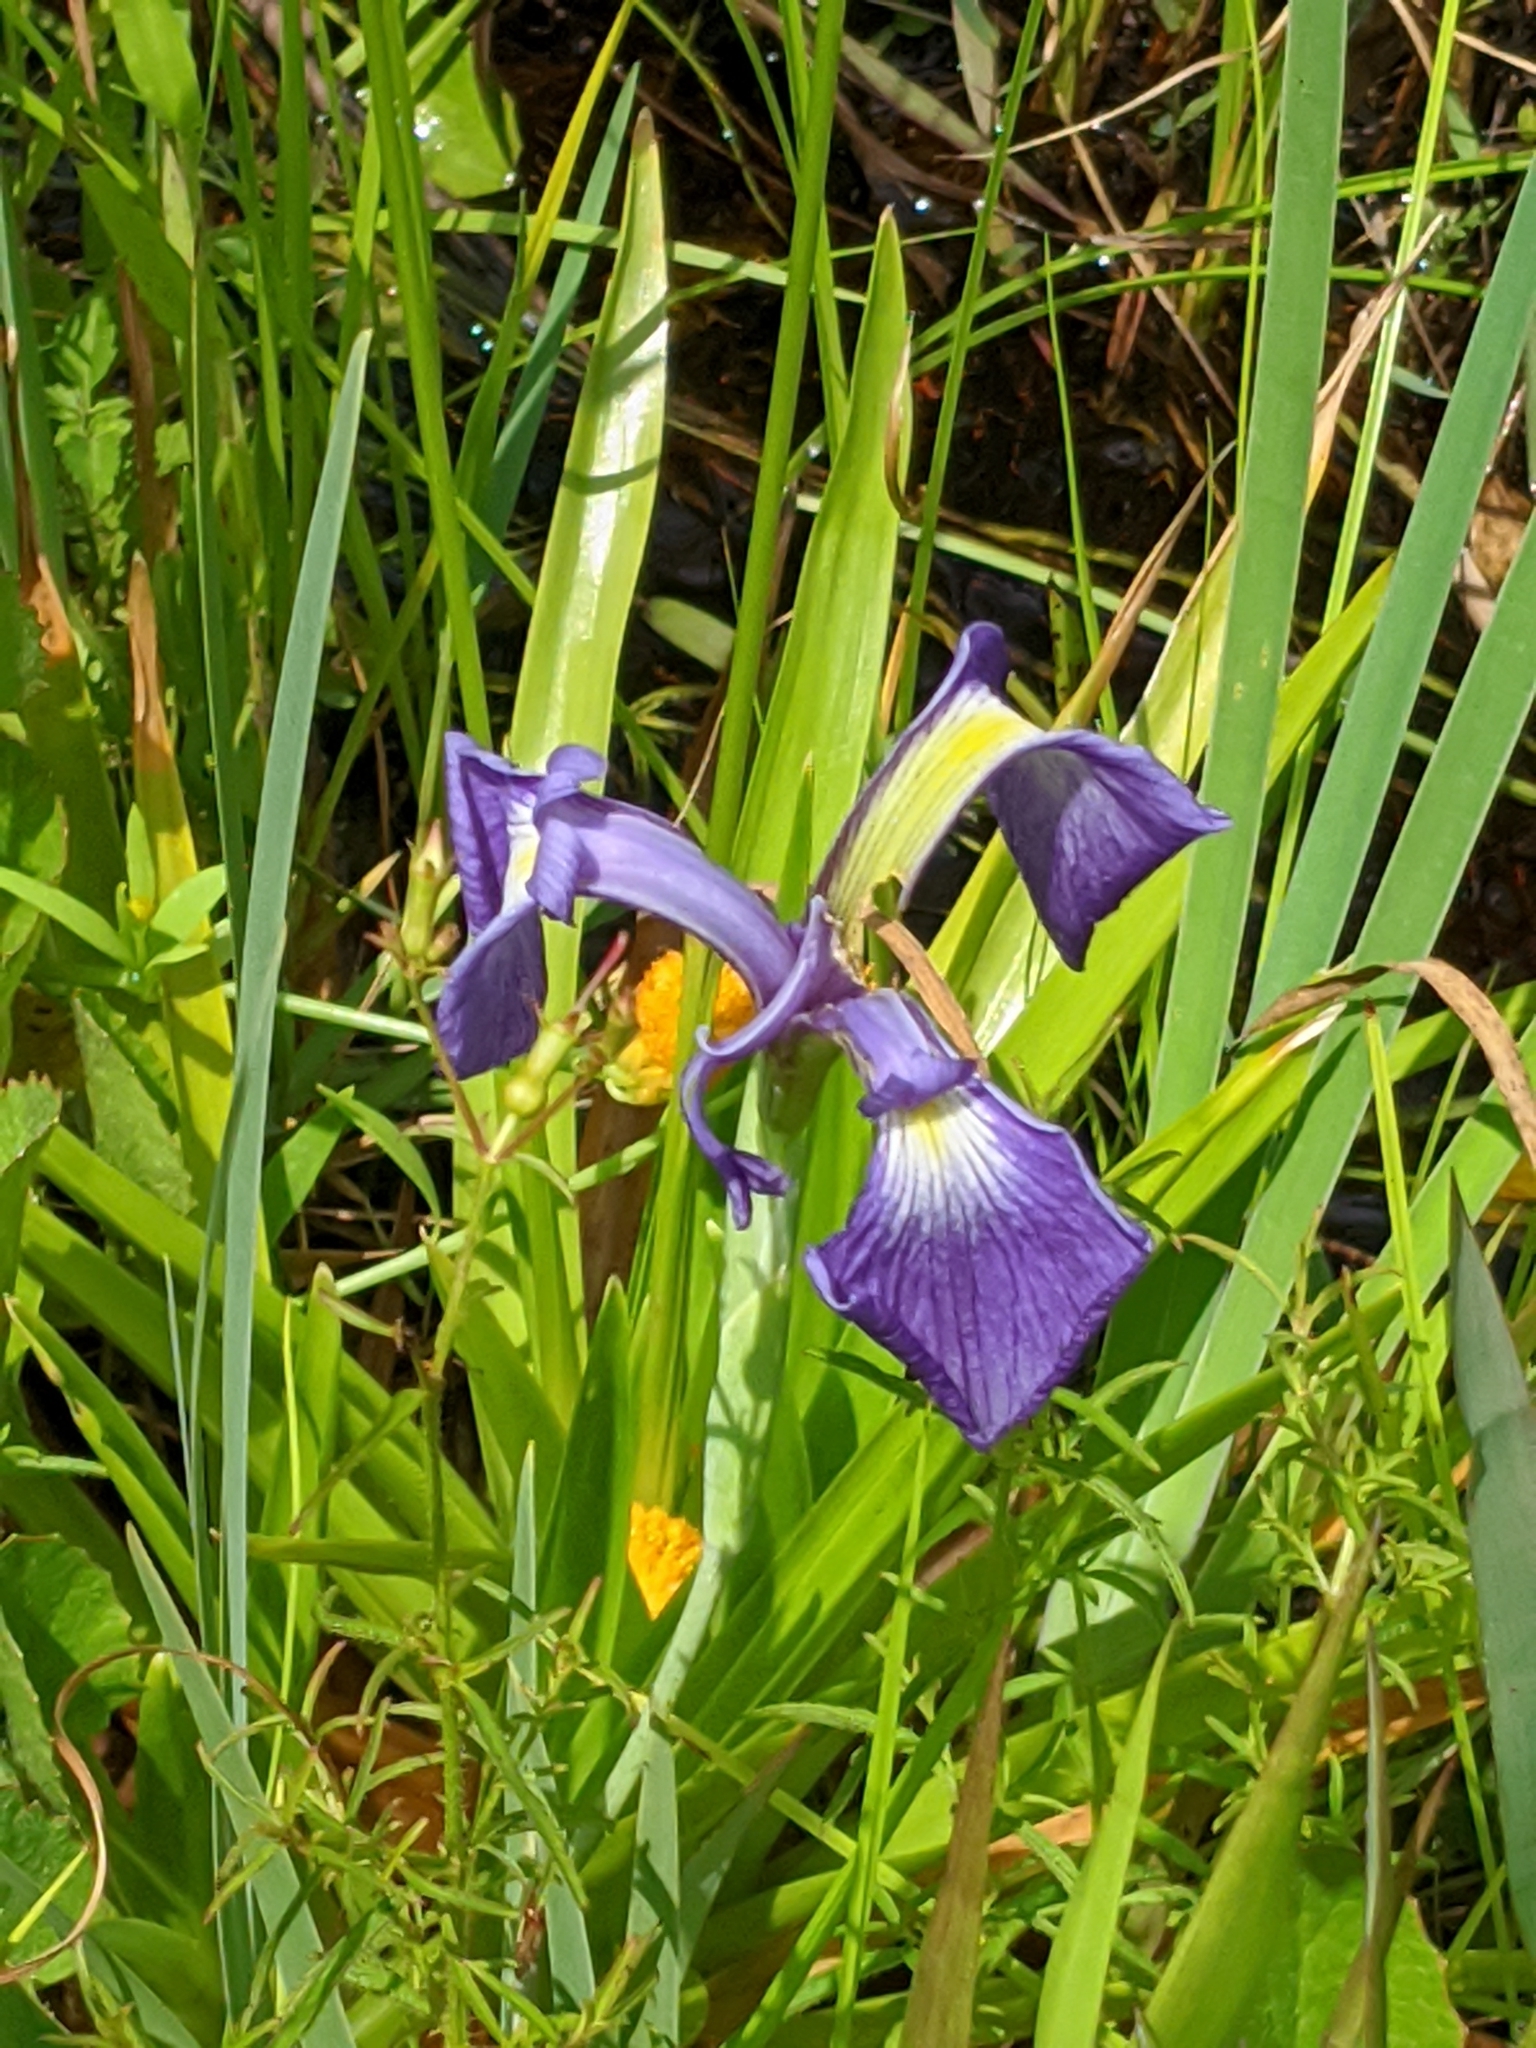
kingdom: Plantae
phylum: Tracheophyta
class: Liliopsida
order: Asparagales
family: Iridaceae
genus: Iris
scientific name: Iris tridentata
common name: Savannah iris
